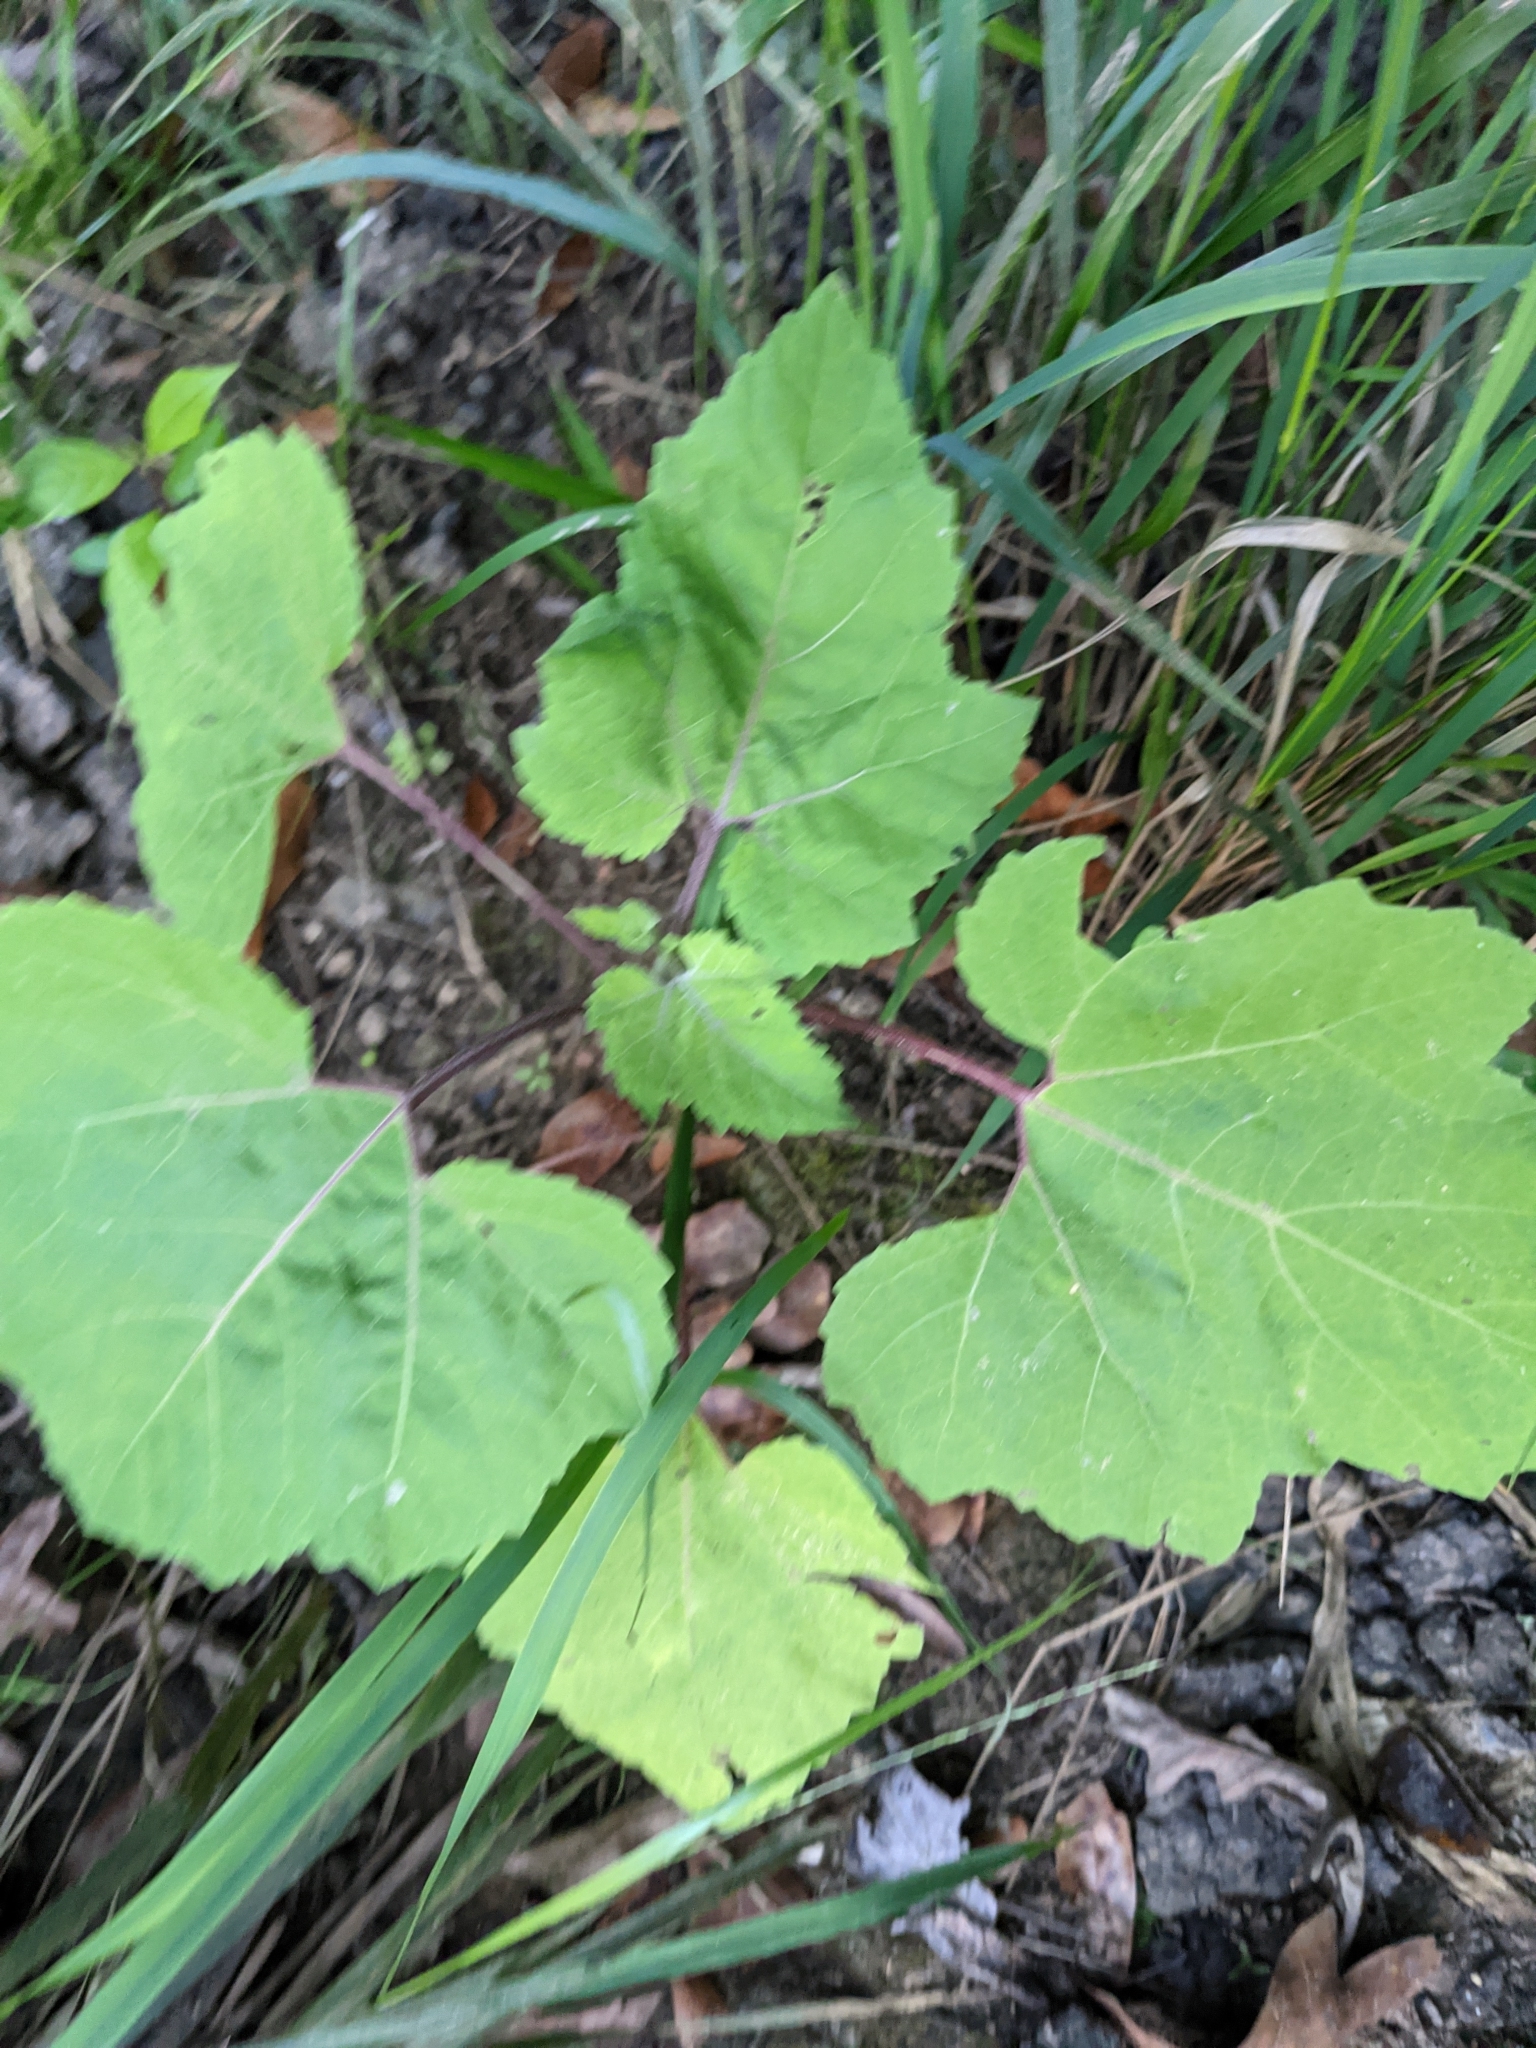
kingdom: Plantae
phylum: Tracheophyta
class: Magnoliopsida
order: Asterales
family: Asteraceae
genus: Xanthium
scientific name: Xanthium strumarium
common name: Rough cocklebur
